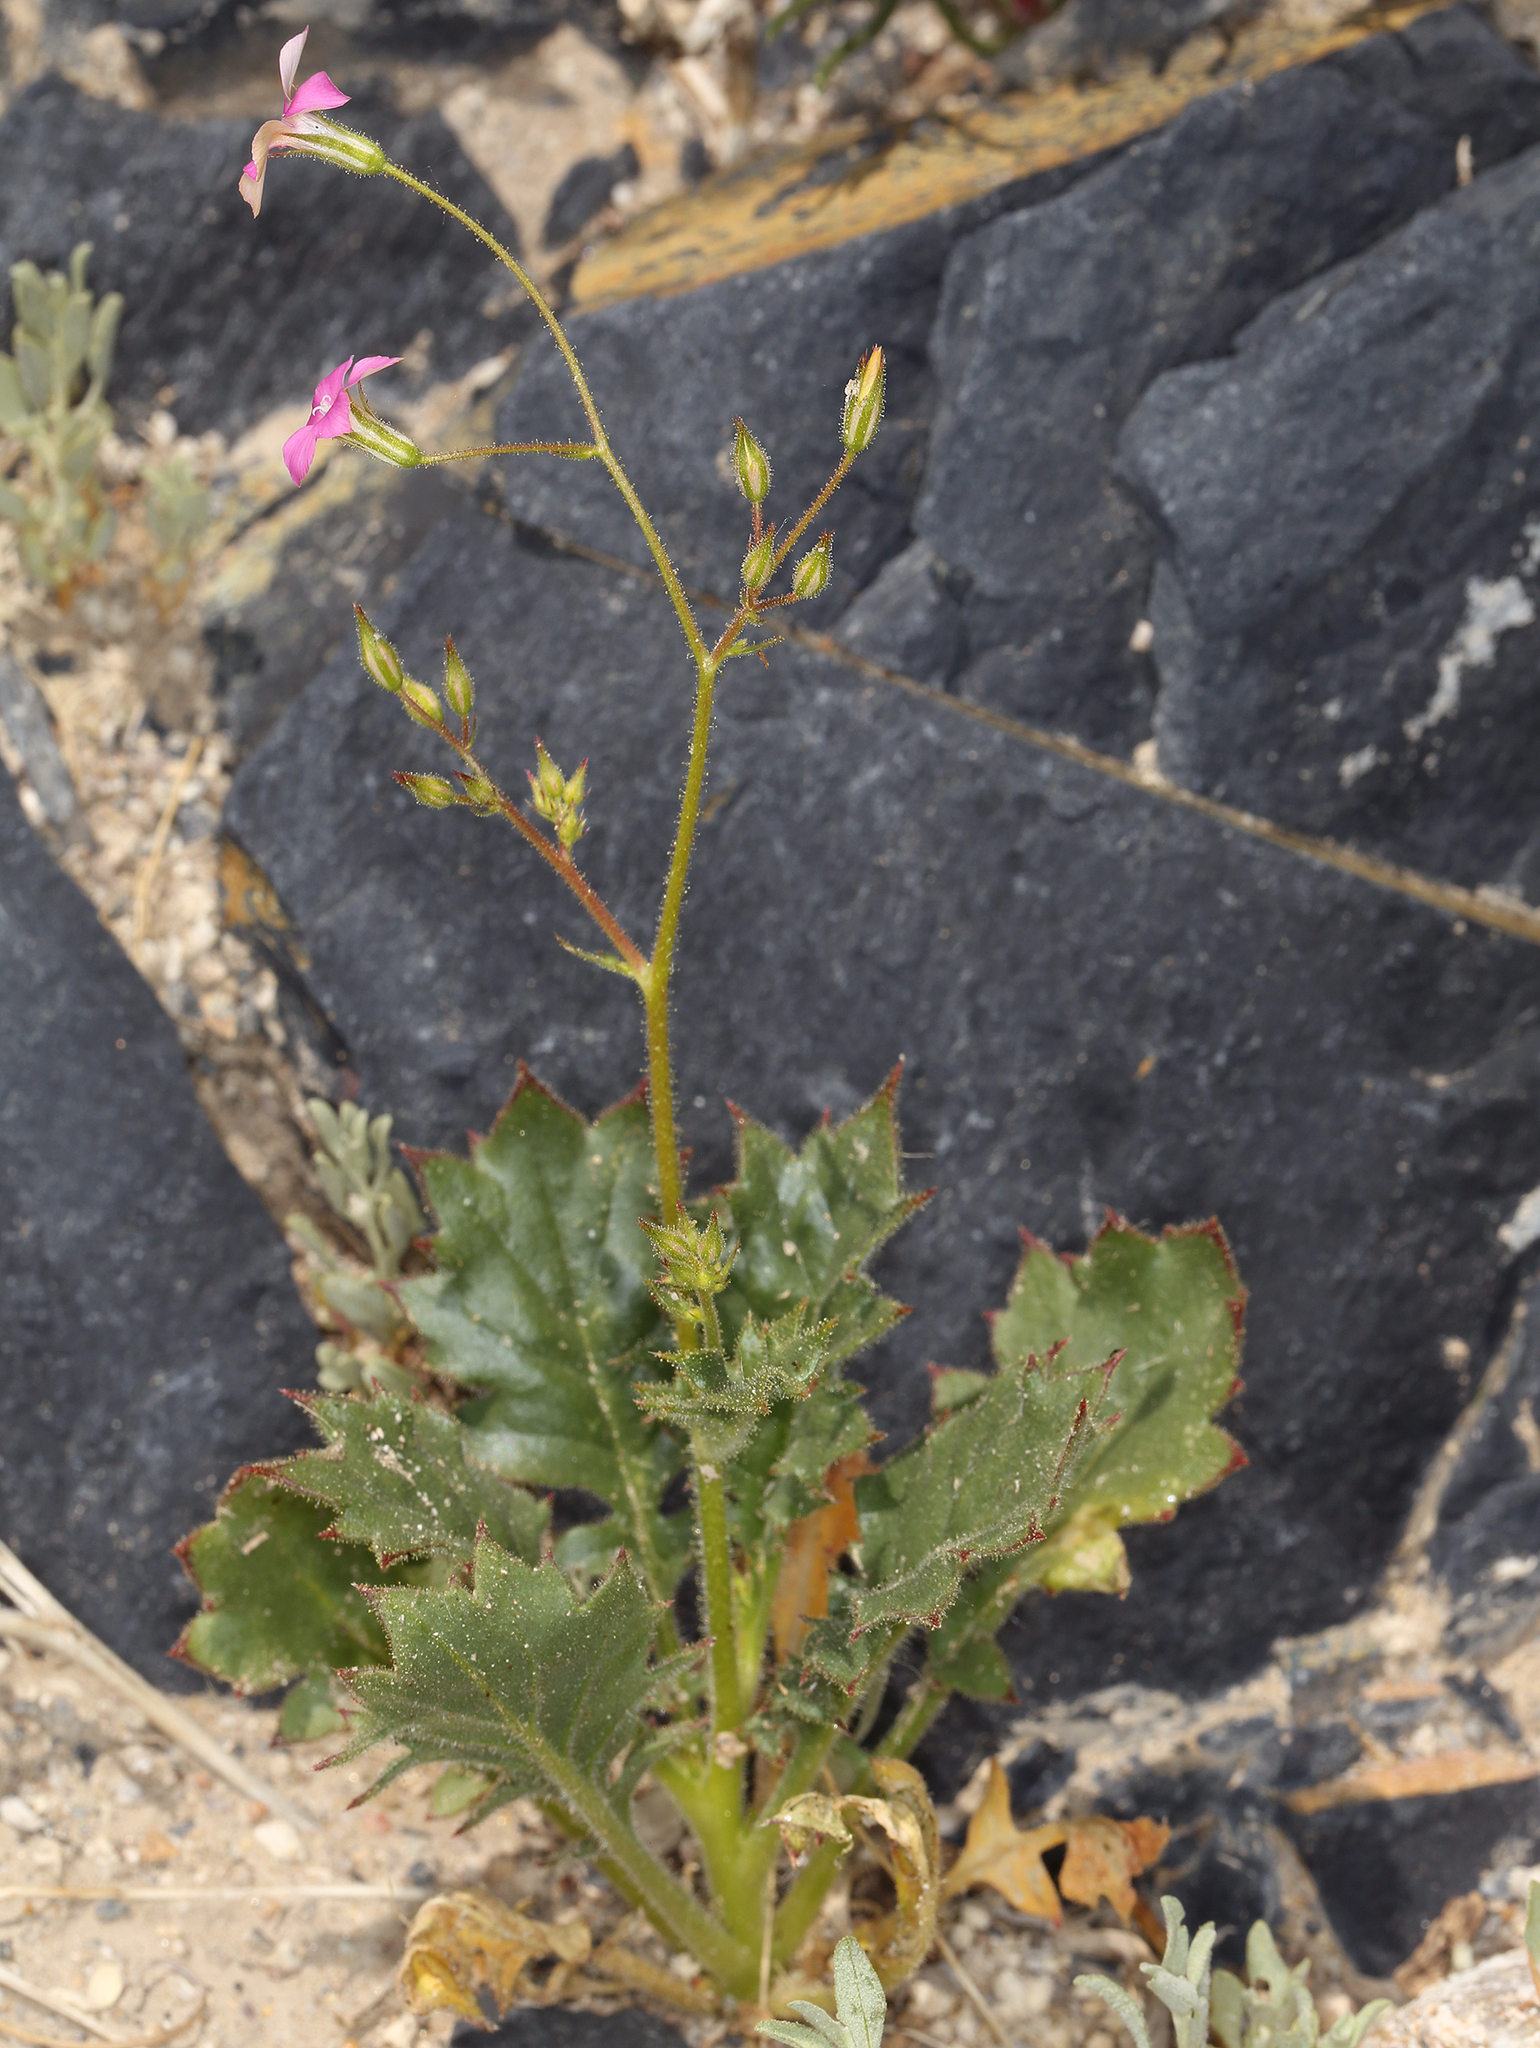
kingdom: Plantae
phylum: Tracheophyta
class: Magnoliopsida
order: Ericales
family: Polemoniaceae
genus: Aliciella
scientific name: Aliciella latifolia
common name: Broad-leaf gilia
